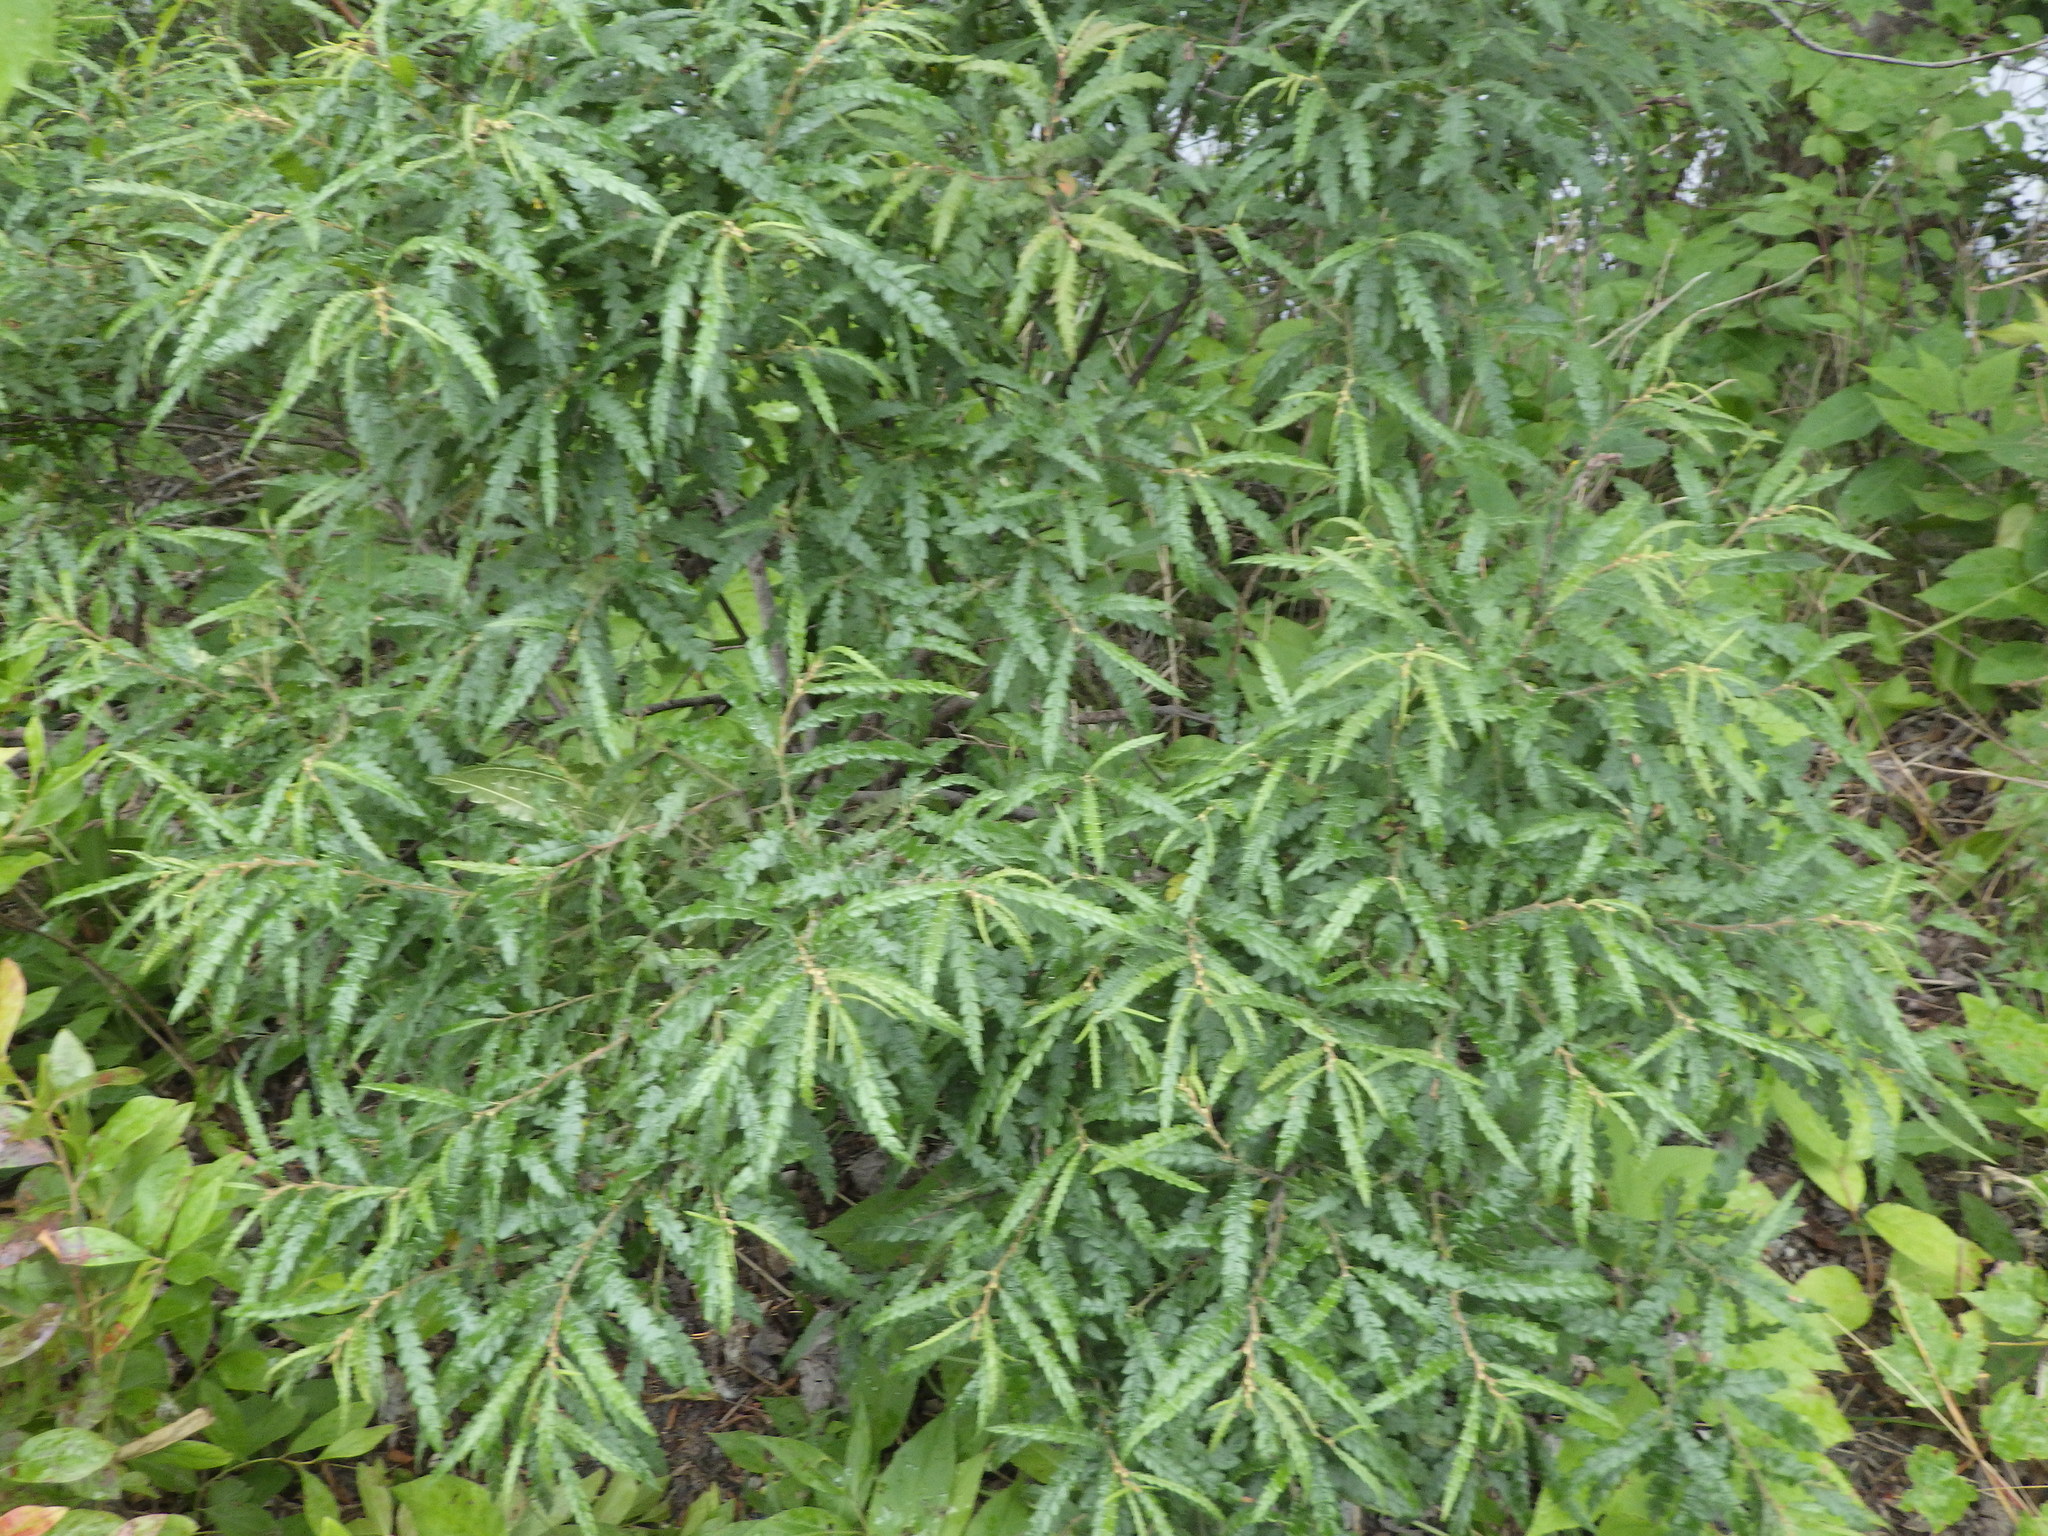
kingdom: Plantae
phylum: Tracheophyta
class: Magnoliopsida
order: Fagales
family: Myricaceae
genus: Comptonia
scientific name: Comptonia peregrina
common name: Sweet-fern
